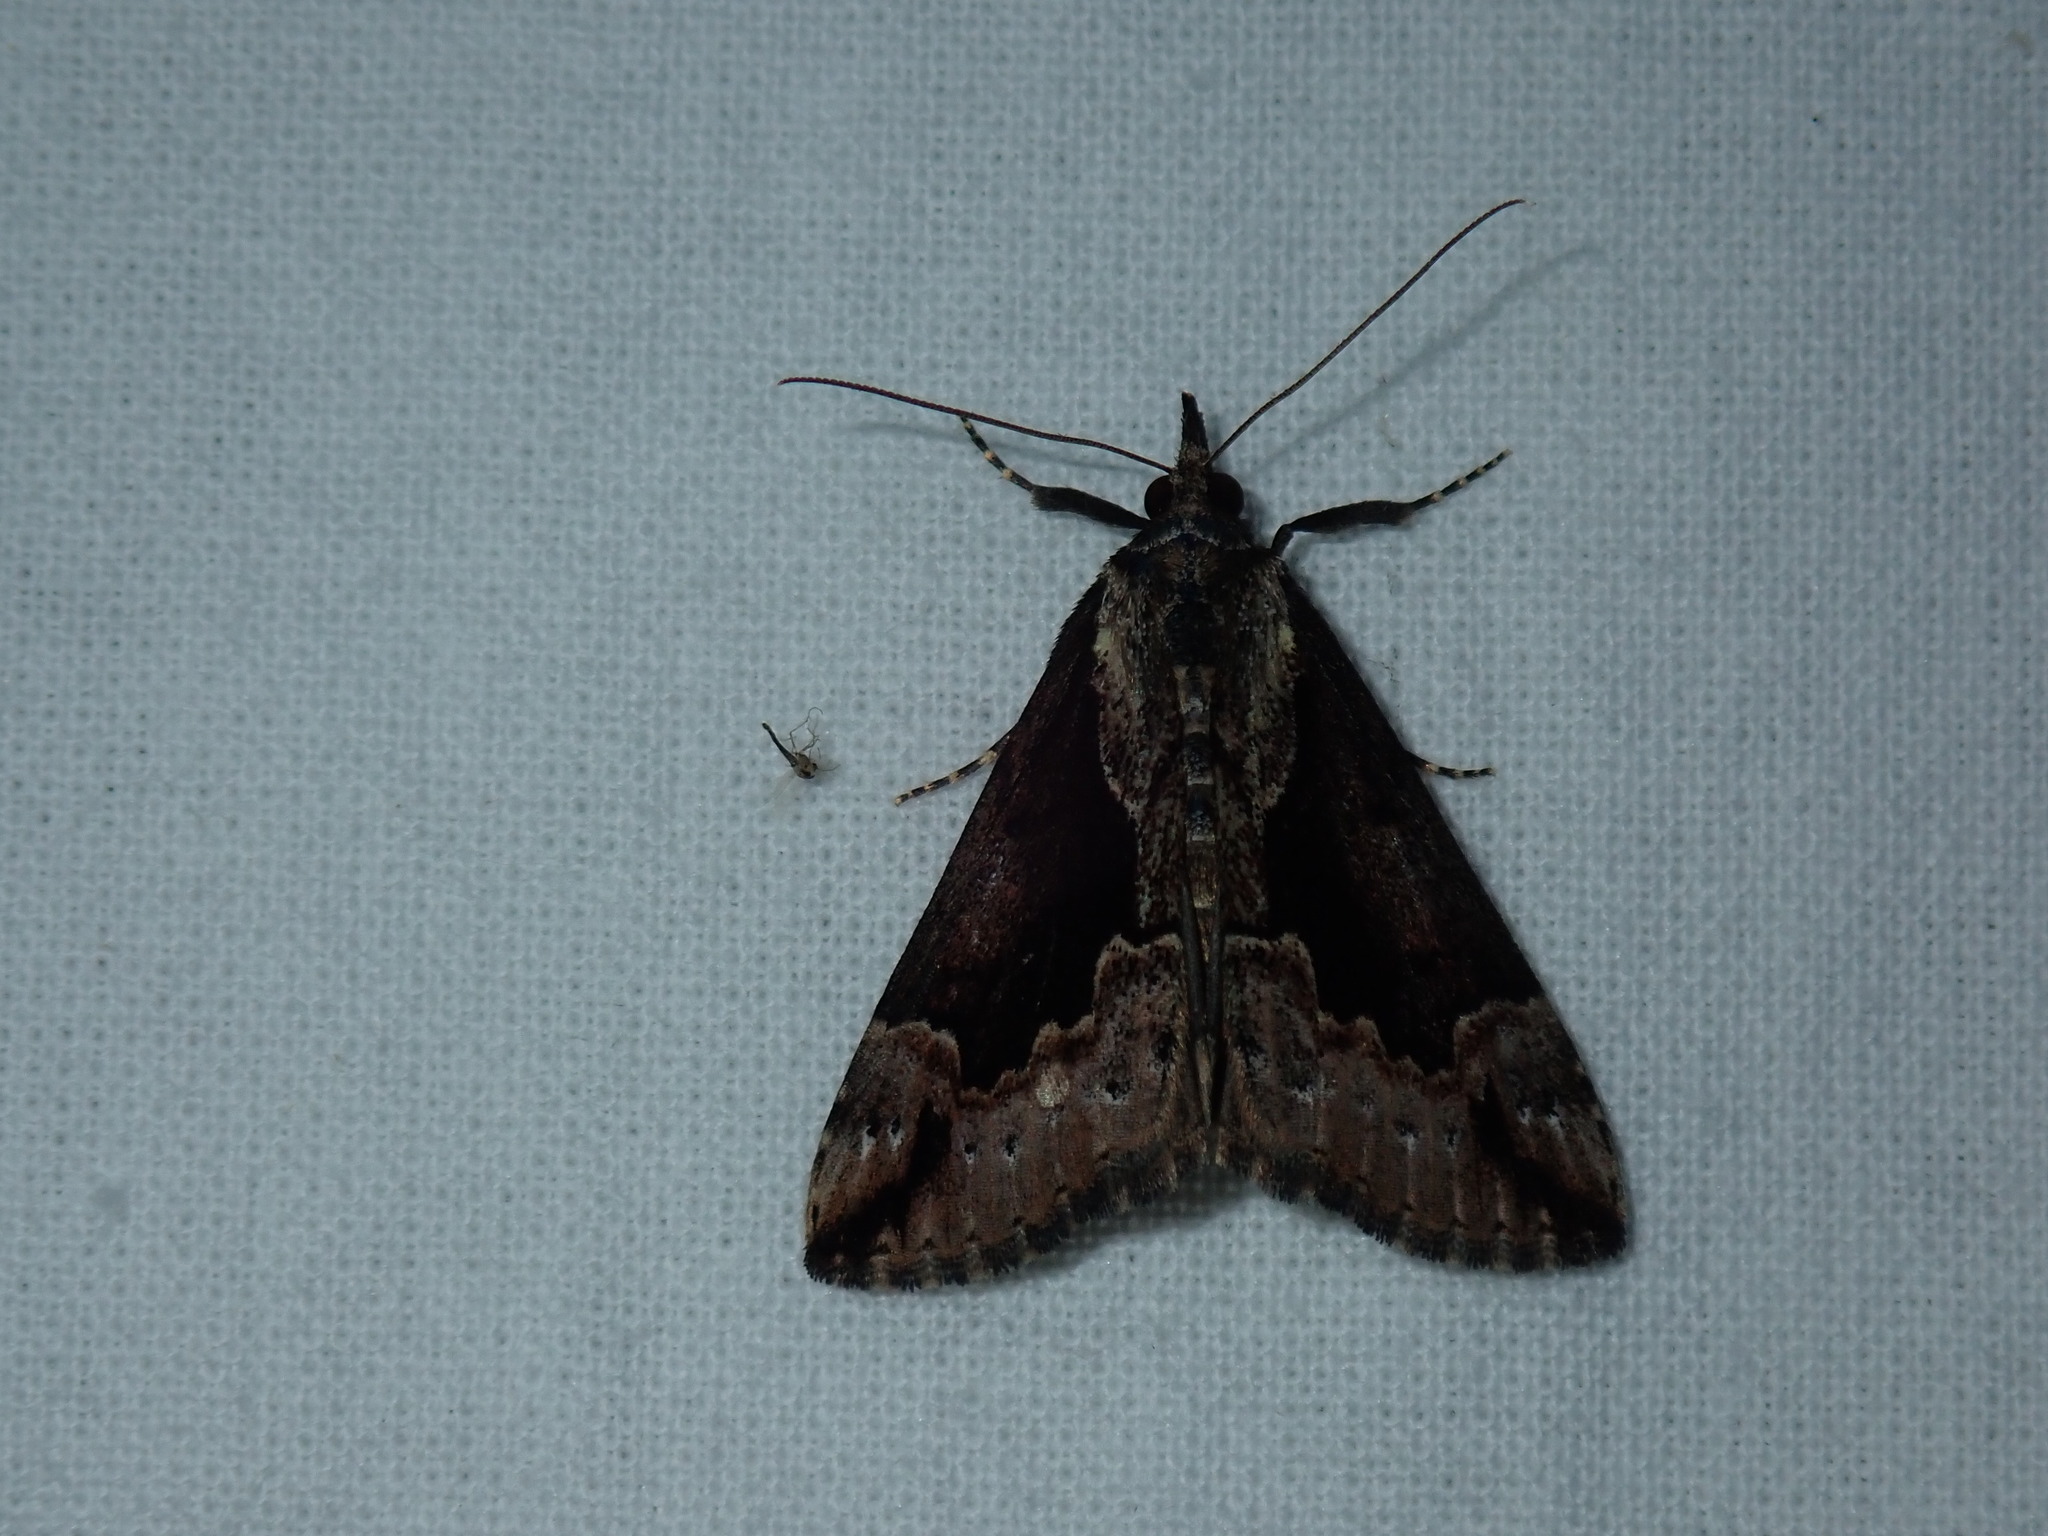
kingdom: Animalia
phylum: Arthropoda
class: Insecta
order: Lepidoptera
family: Erebidae
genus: Hypena
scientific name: Hypena baltimoralis
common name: Baltimore snout
